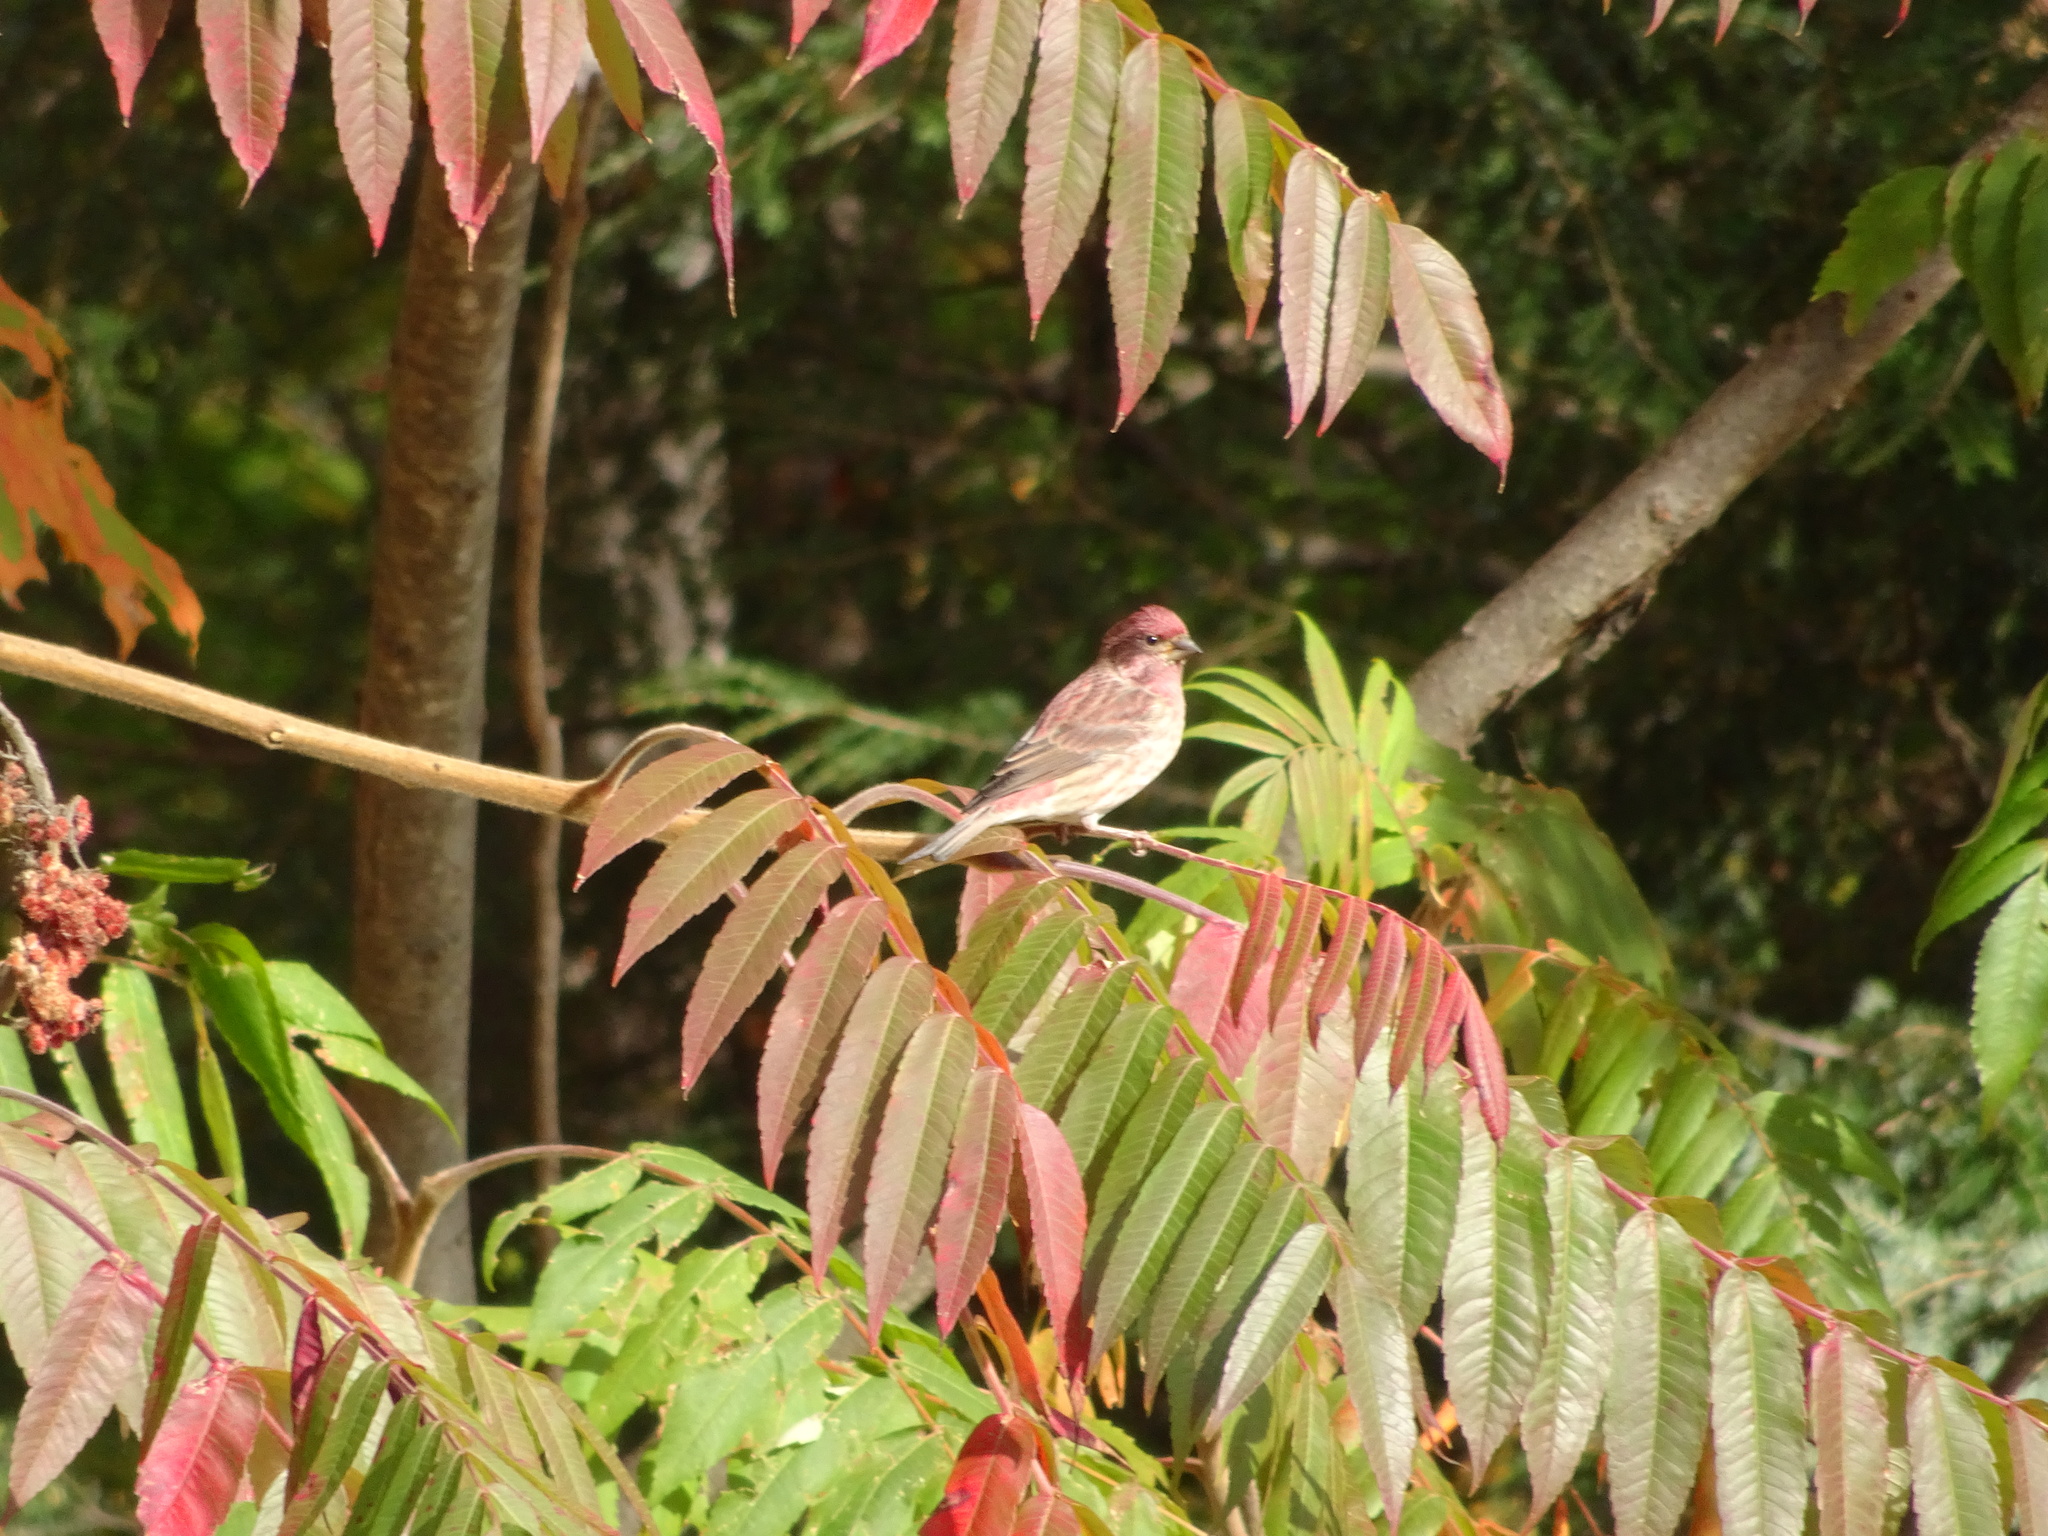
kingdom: Animalia
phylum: Chordata
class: Aves
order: Passeriformes
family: Fringillidae
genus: Haemorhous
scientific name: Haemorhous purpureus
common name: Purple finch
